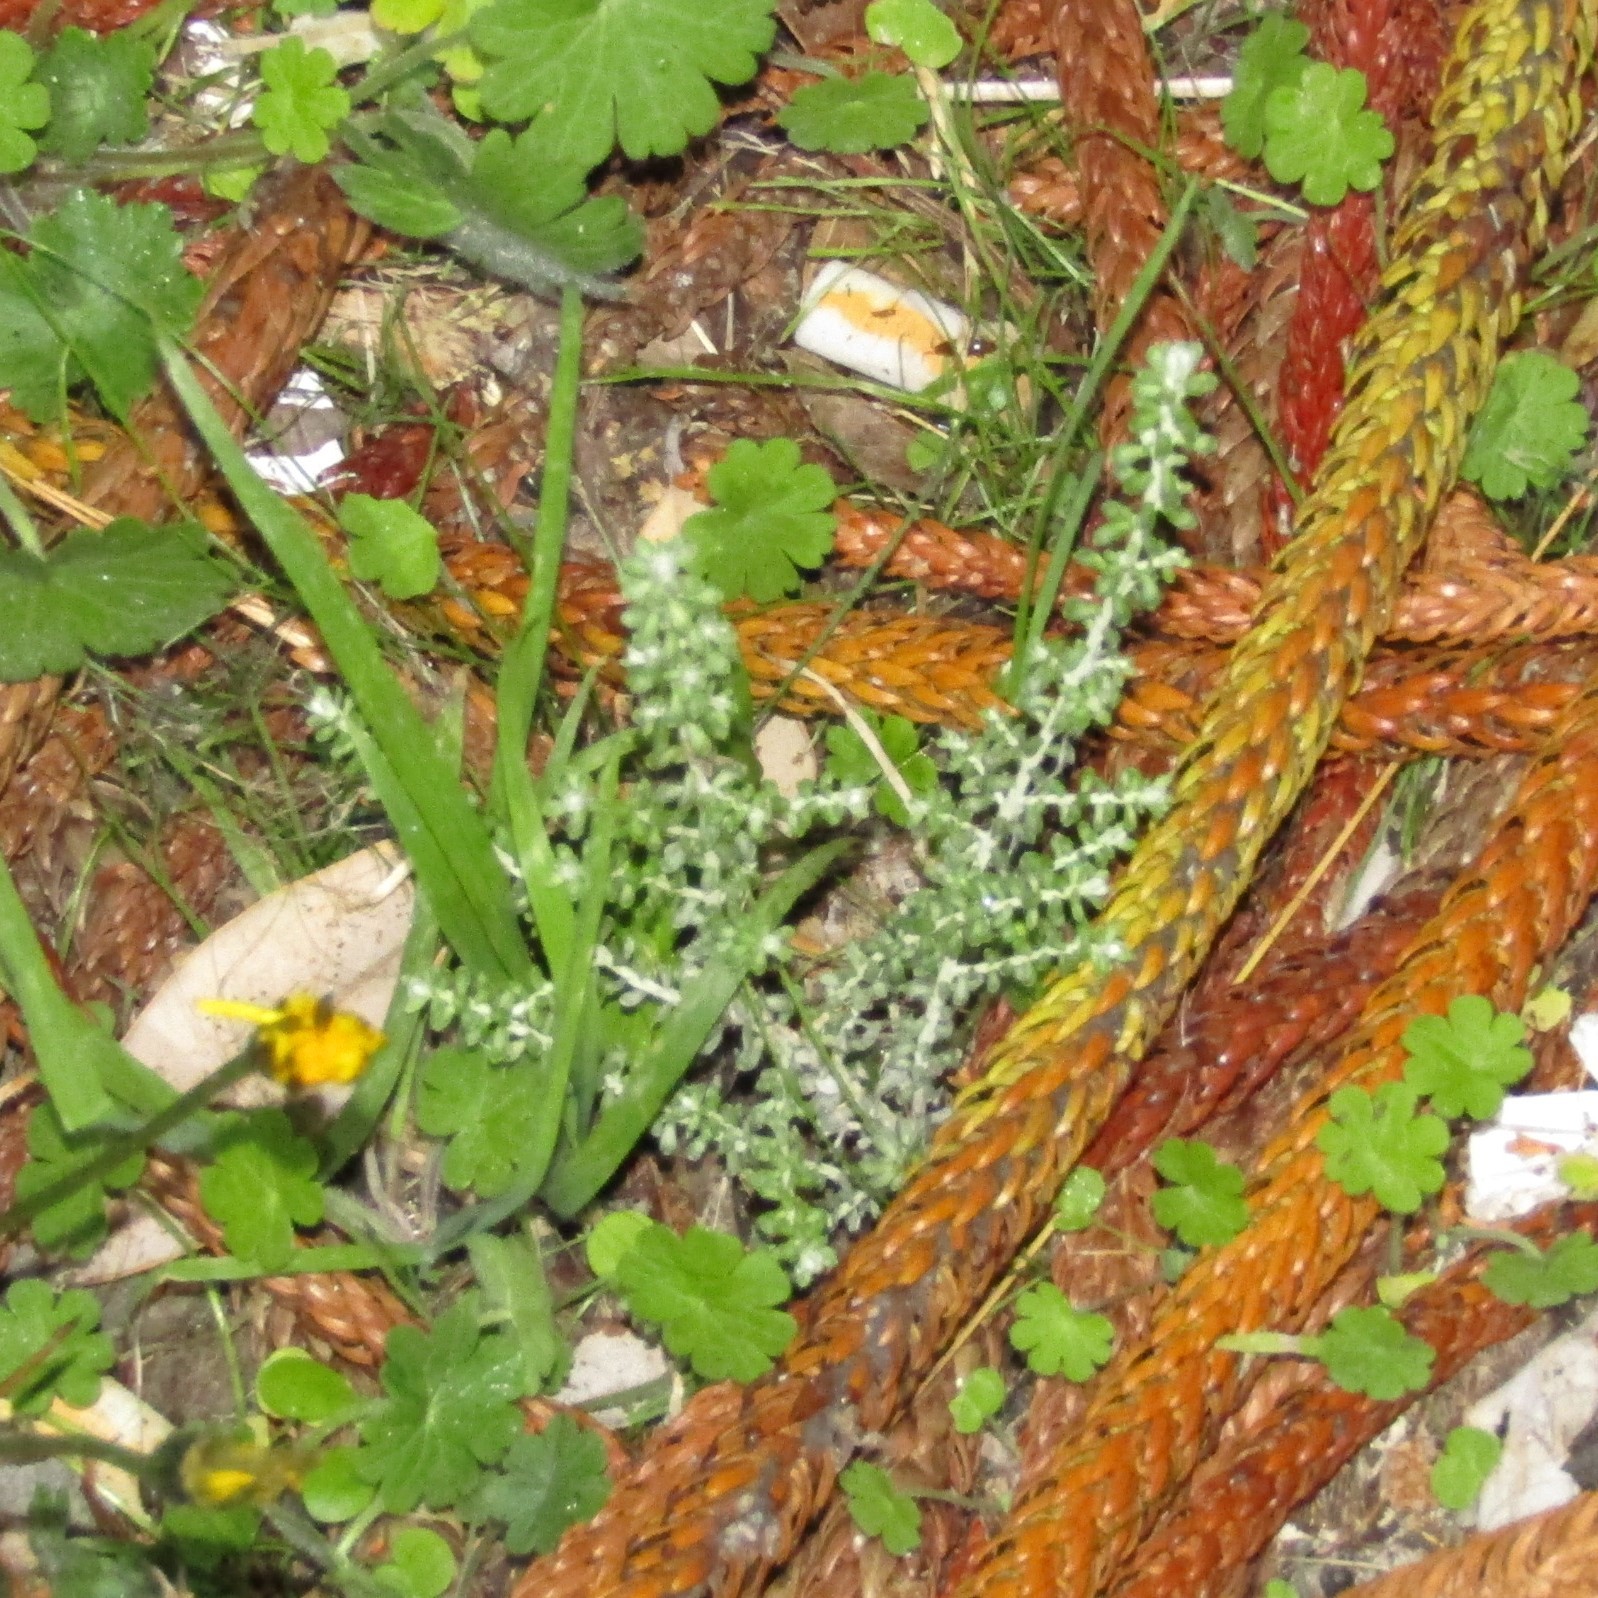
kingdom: Plantae
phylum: Tracheophyta
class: Magnoliopsida
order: Asterales
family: Asteraceae
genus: Ozothamnus
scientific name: Ozothamnus leptophyllus
